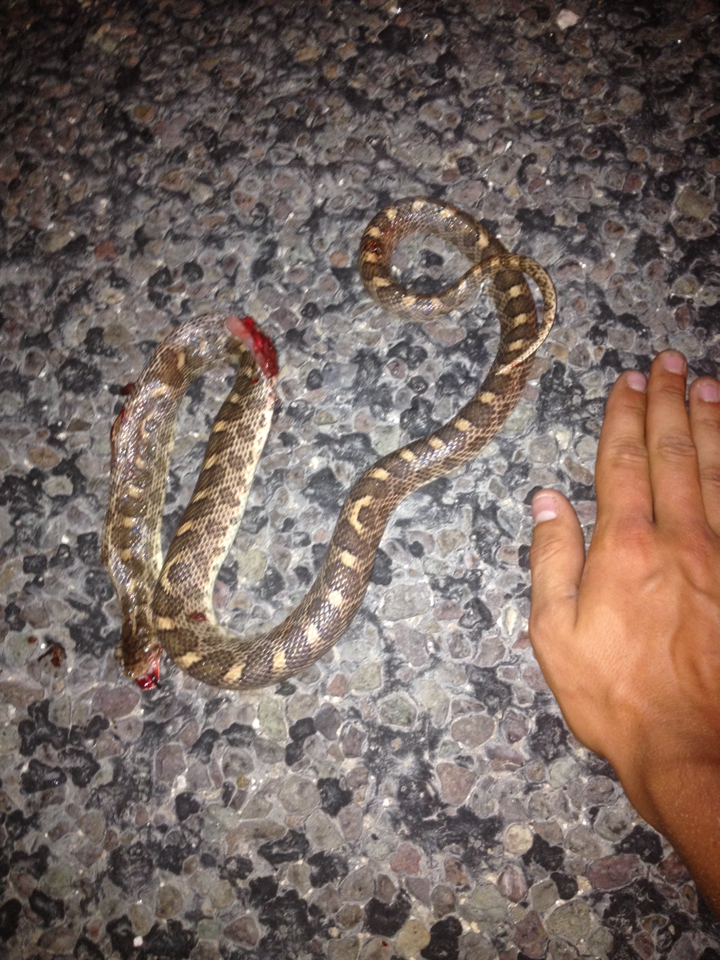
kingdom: Animalia
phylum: Chordata
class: Squamata
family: Colubridae
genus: Arizona
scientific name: Arizona elegans
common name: Glossy snake
